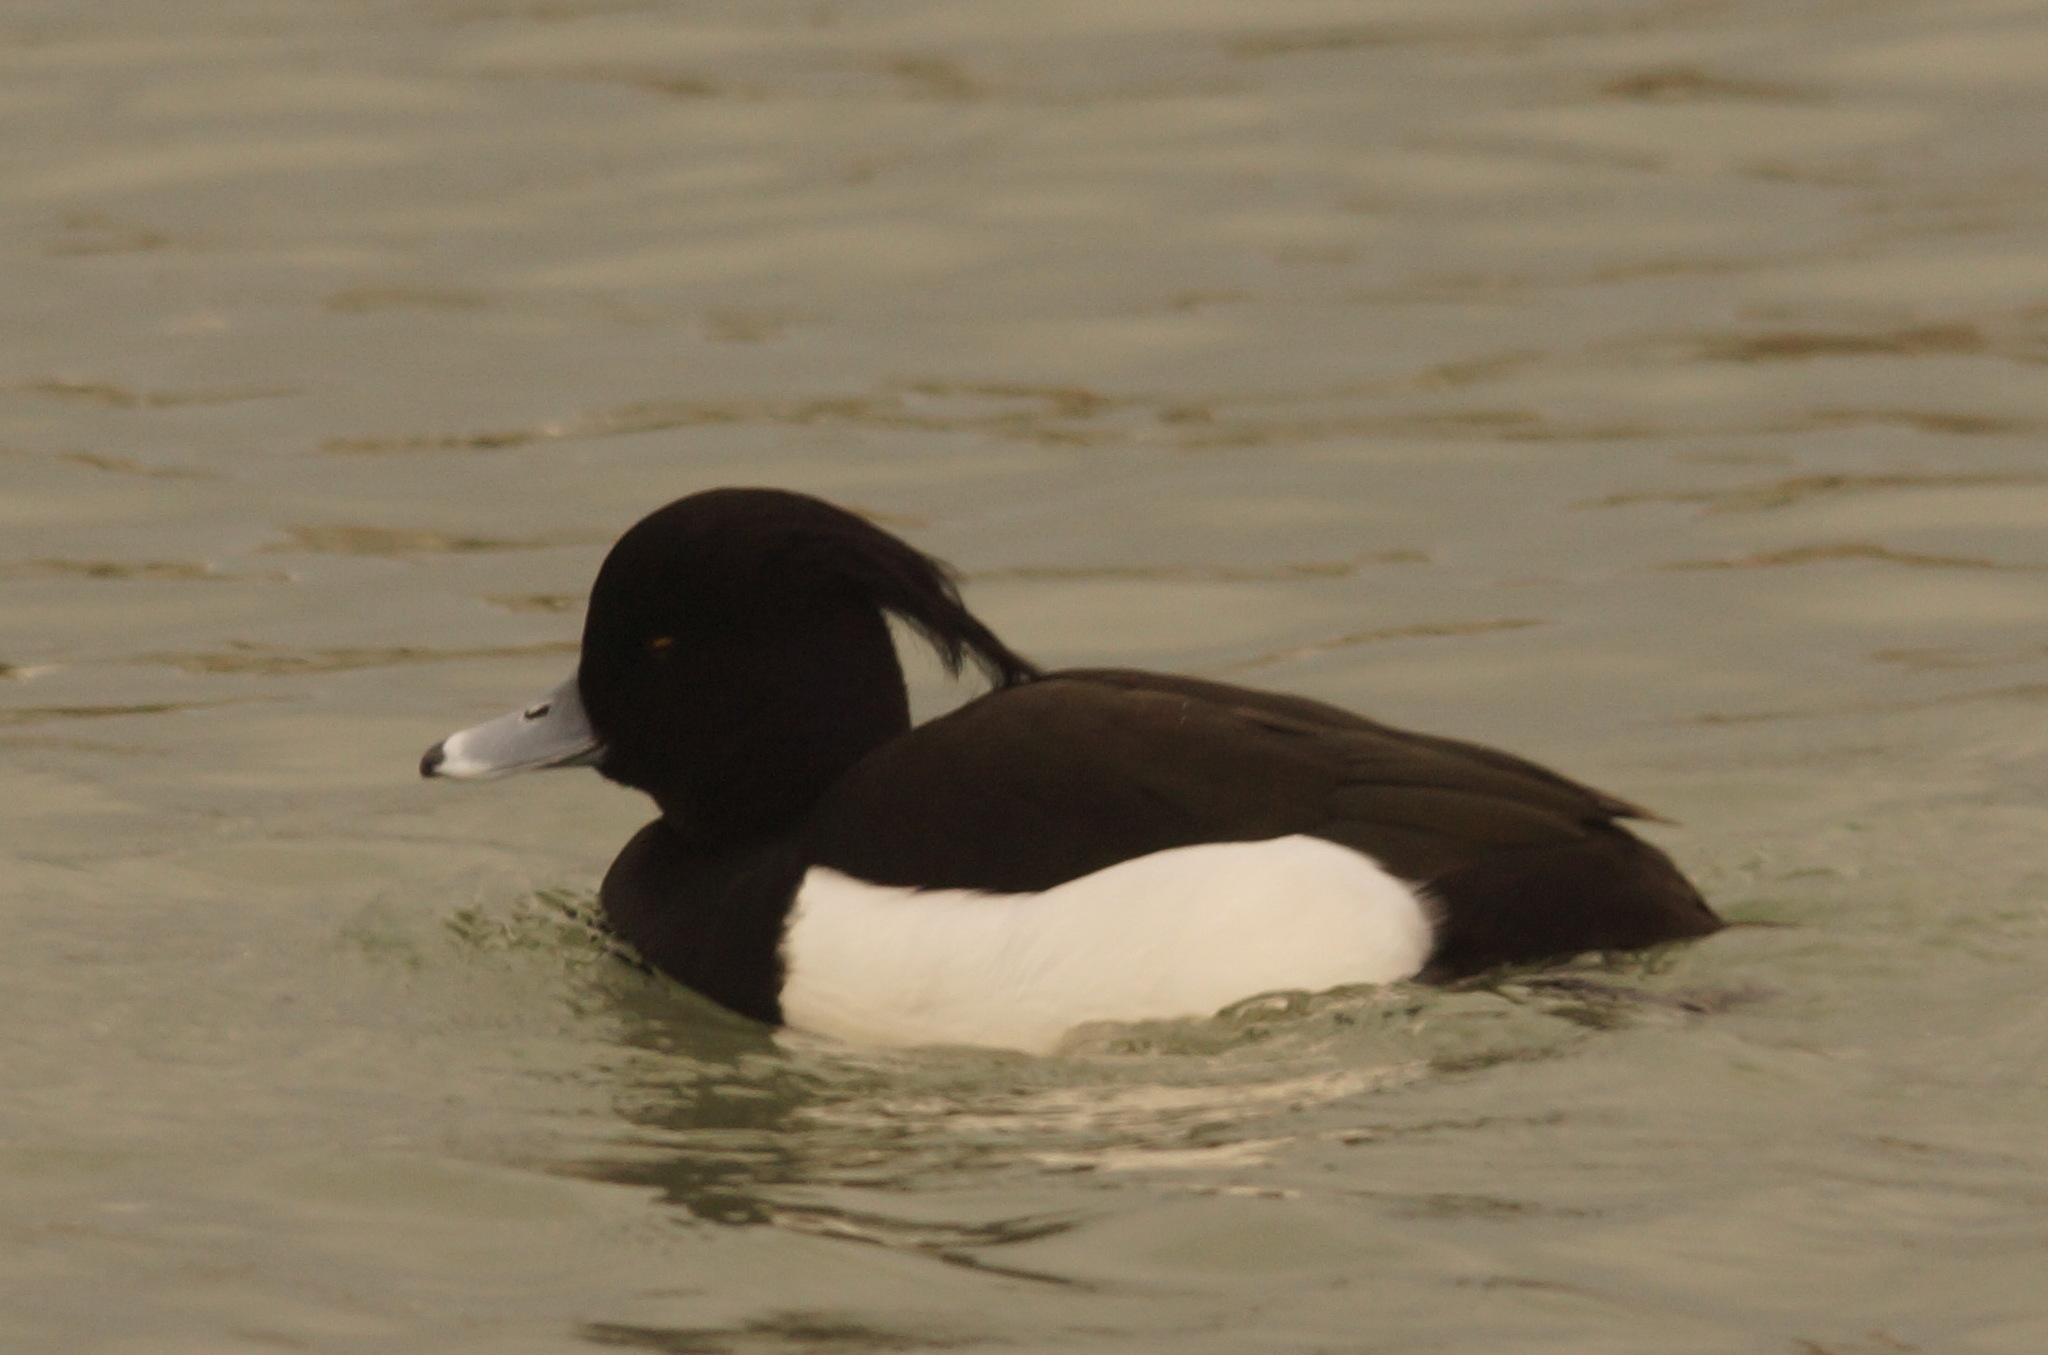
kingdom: Animalia
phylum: Chordata
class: Aves
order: Anseriformes
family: Anatidae
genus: Aythya
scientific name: Aythya fuligula
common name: Tufted duck
